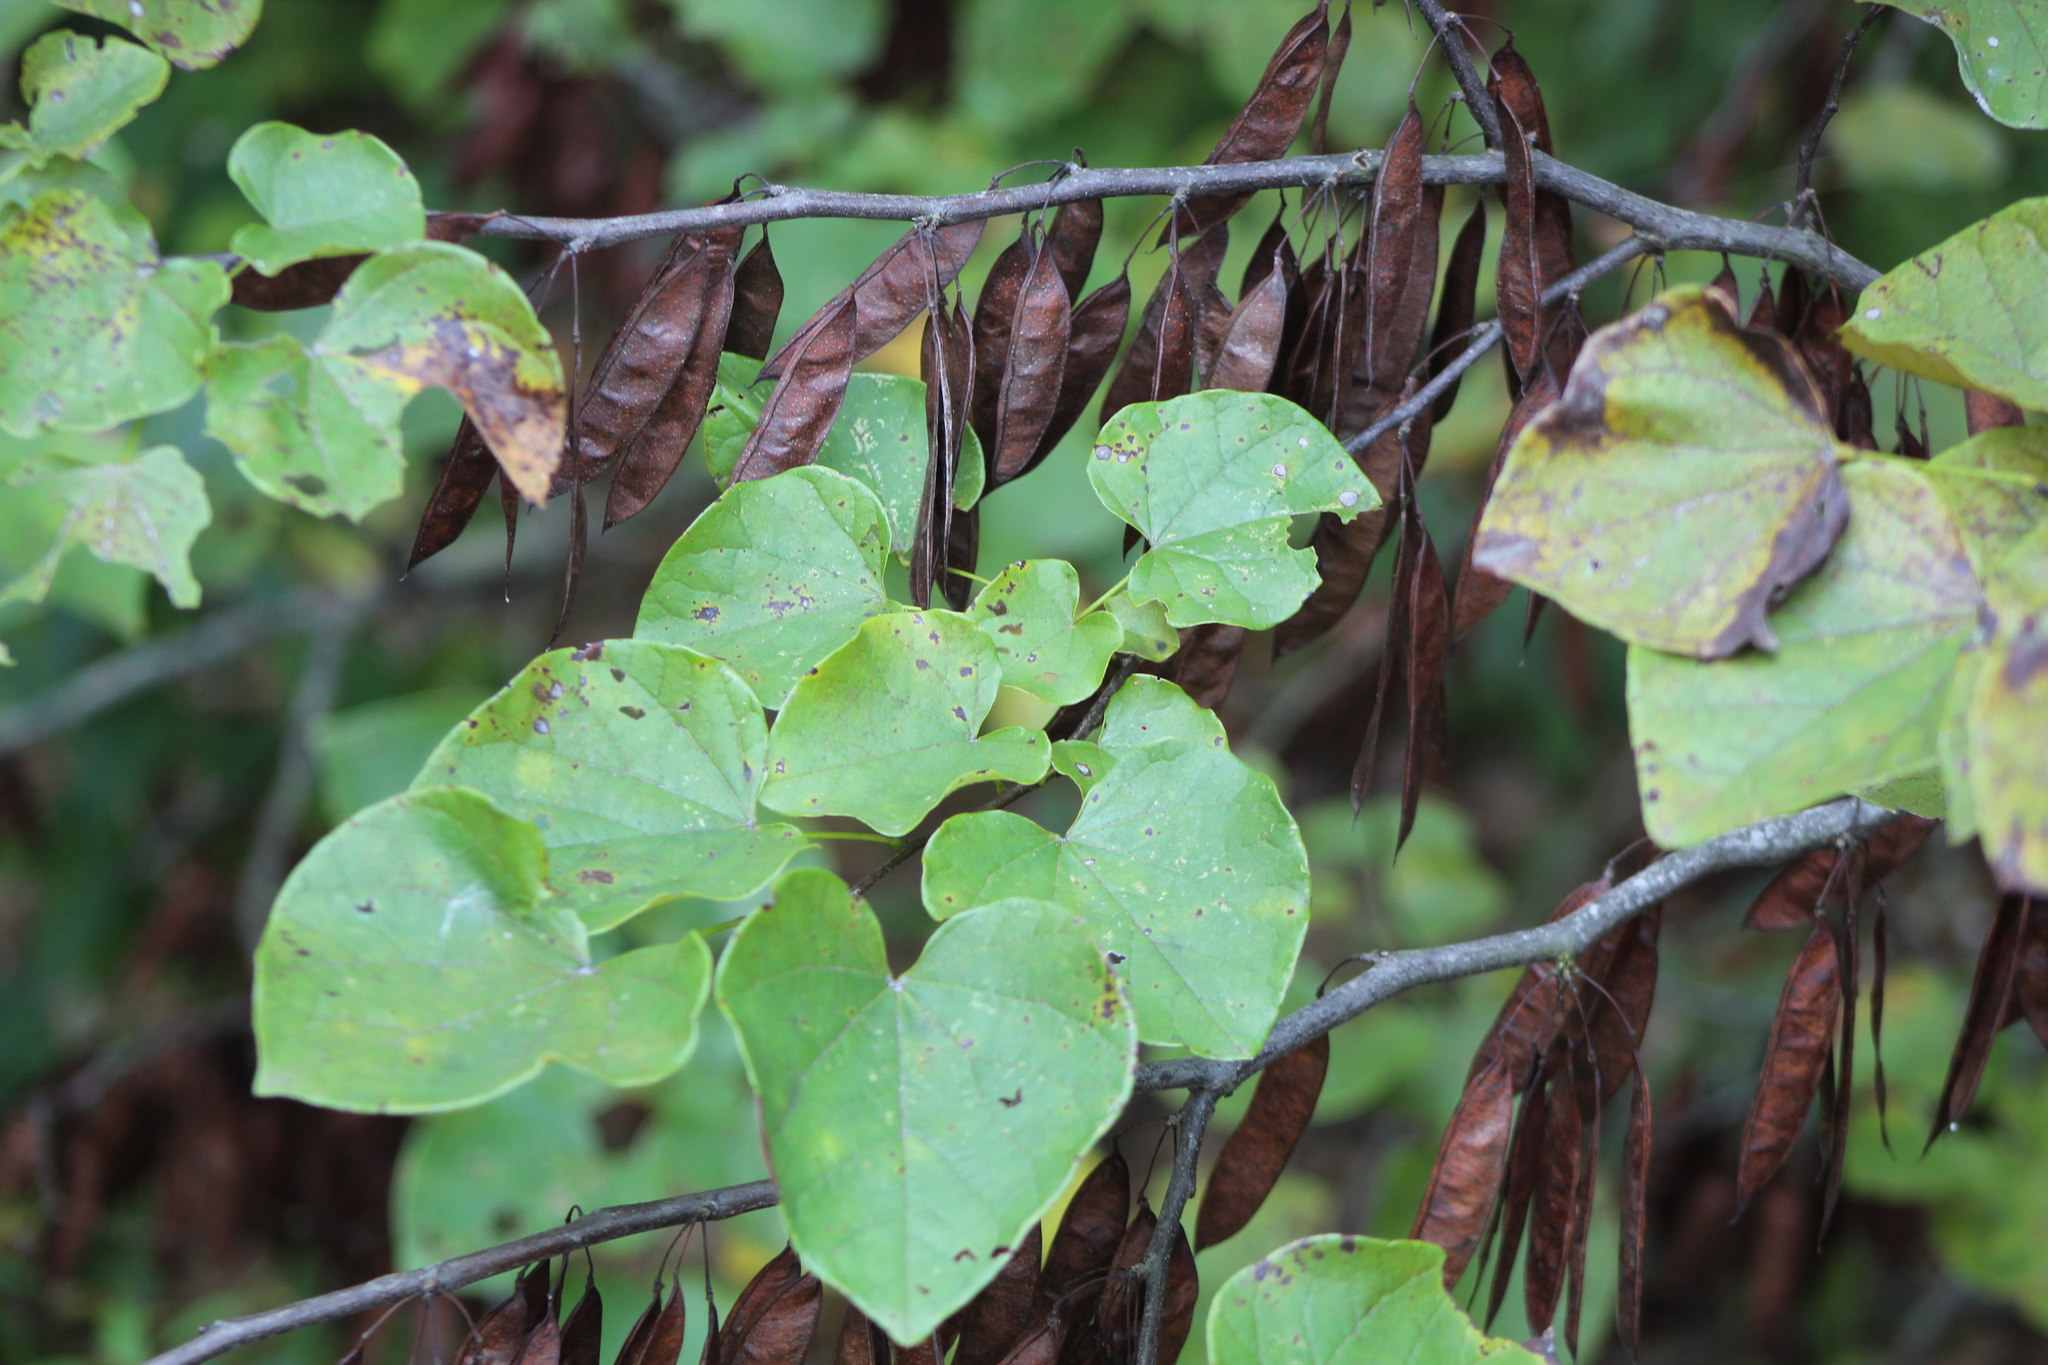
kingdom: Plantae
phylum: Tracheophyta
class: Magnoliopsida
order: Fabales
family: Fabaceae
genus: Cercis
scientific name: Cercis canadensis
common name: Eastern redbud
